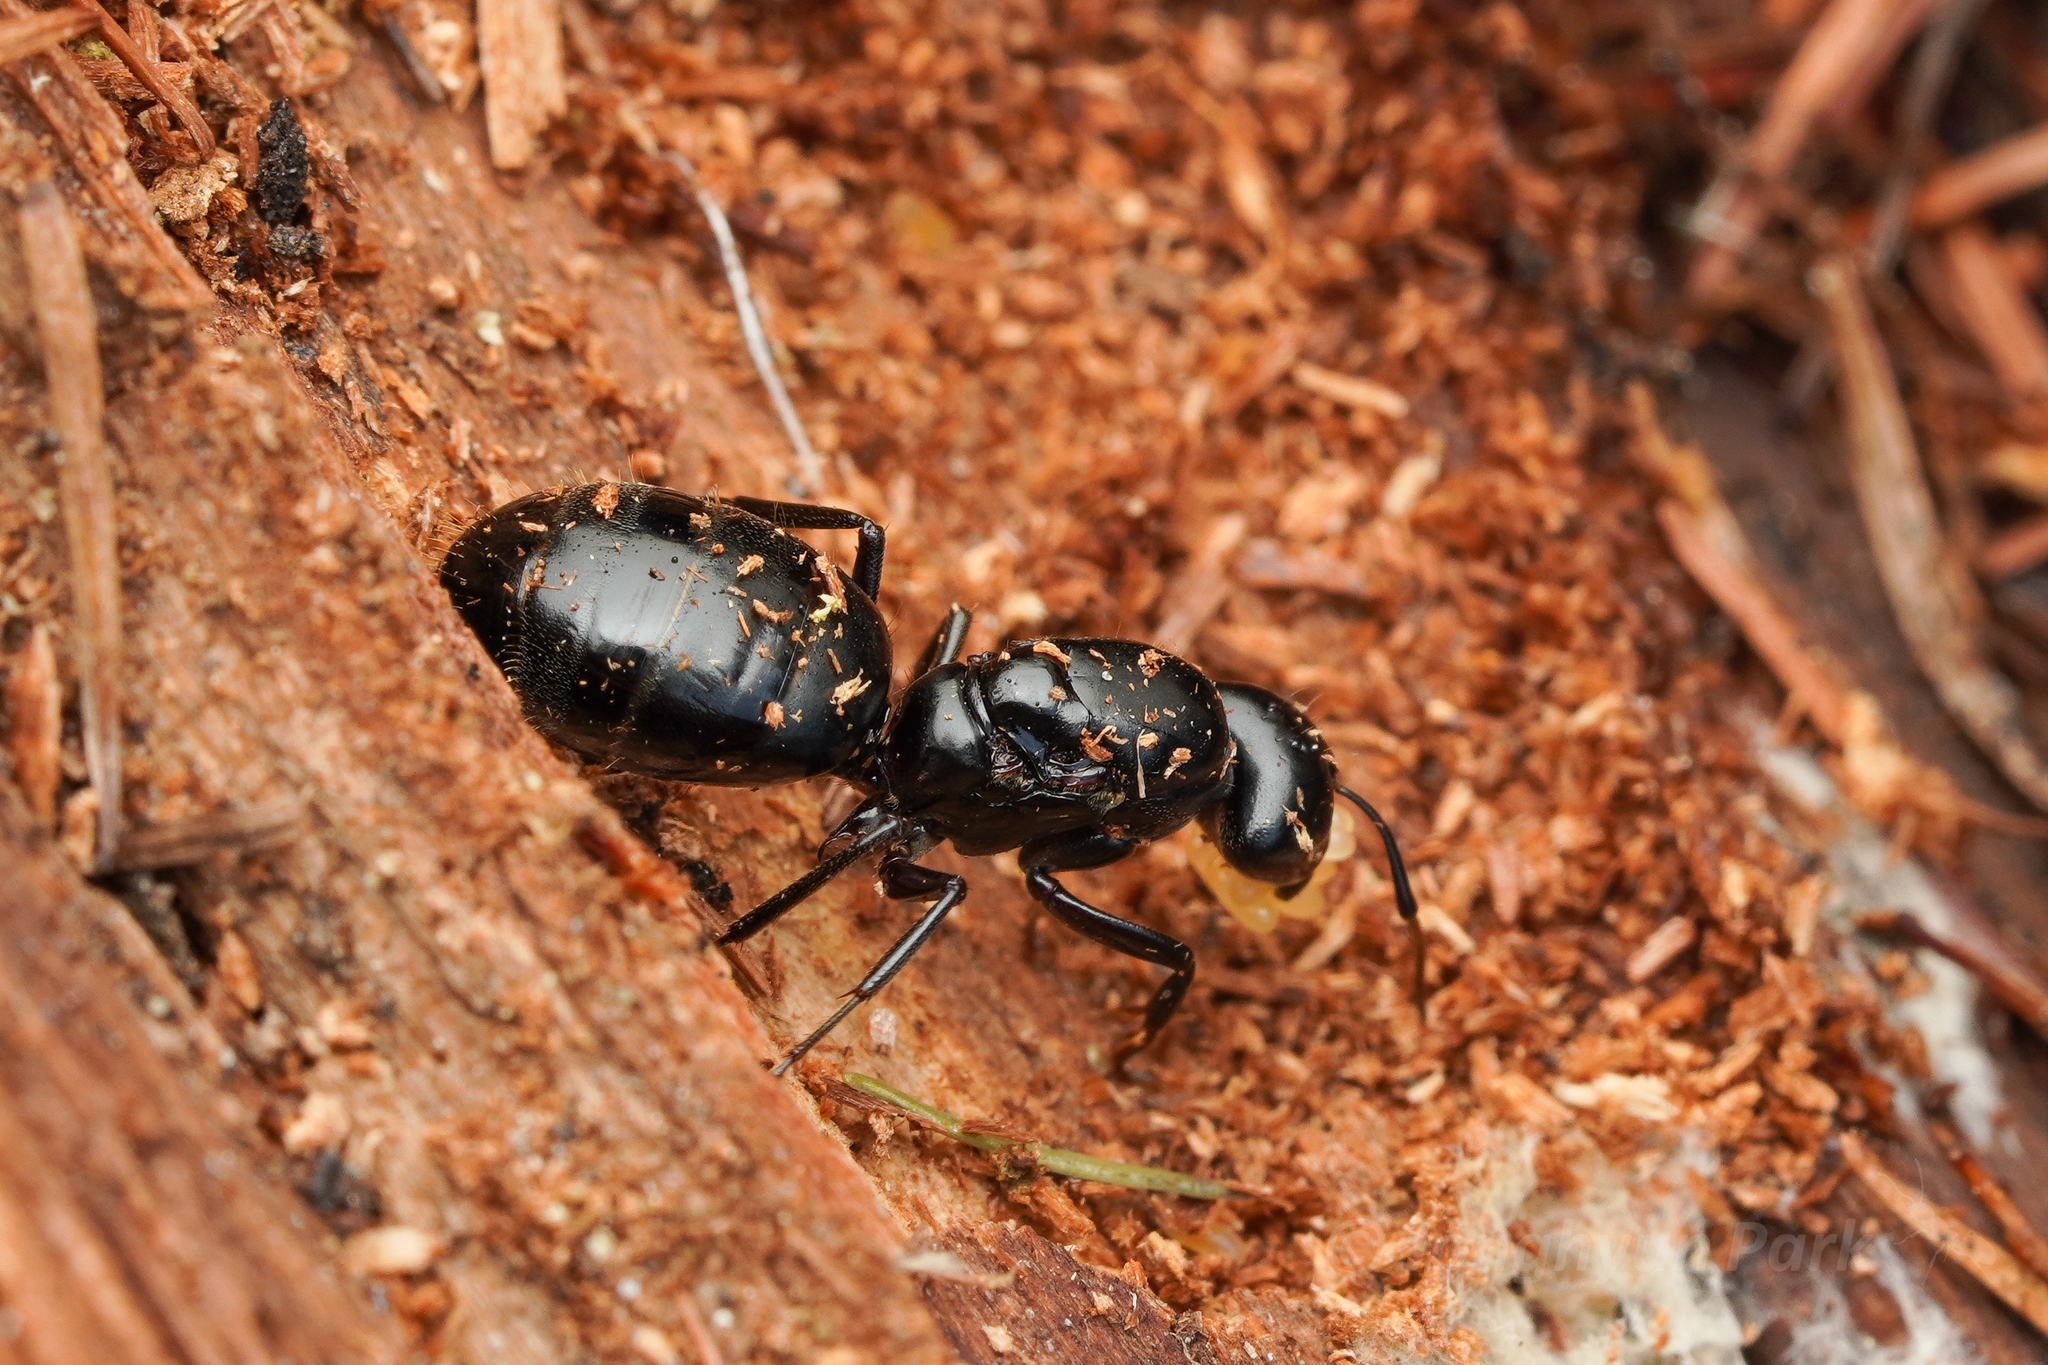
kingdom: Animalia
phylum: Arthropoda
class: Insecta
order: Hymenoptera
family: Formicidae
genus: Camponotus
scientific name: Camponotus herculeanus
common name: Hercules ant
